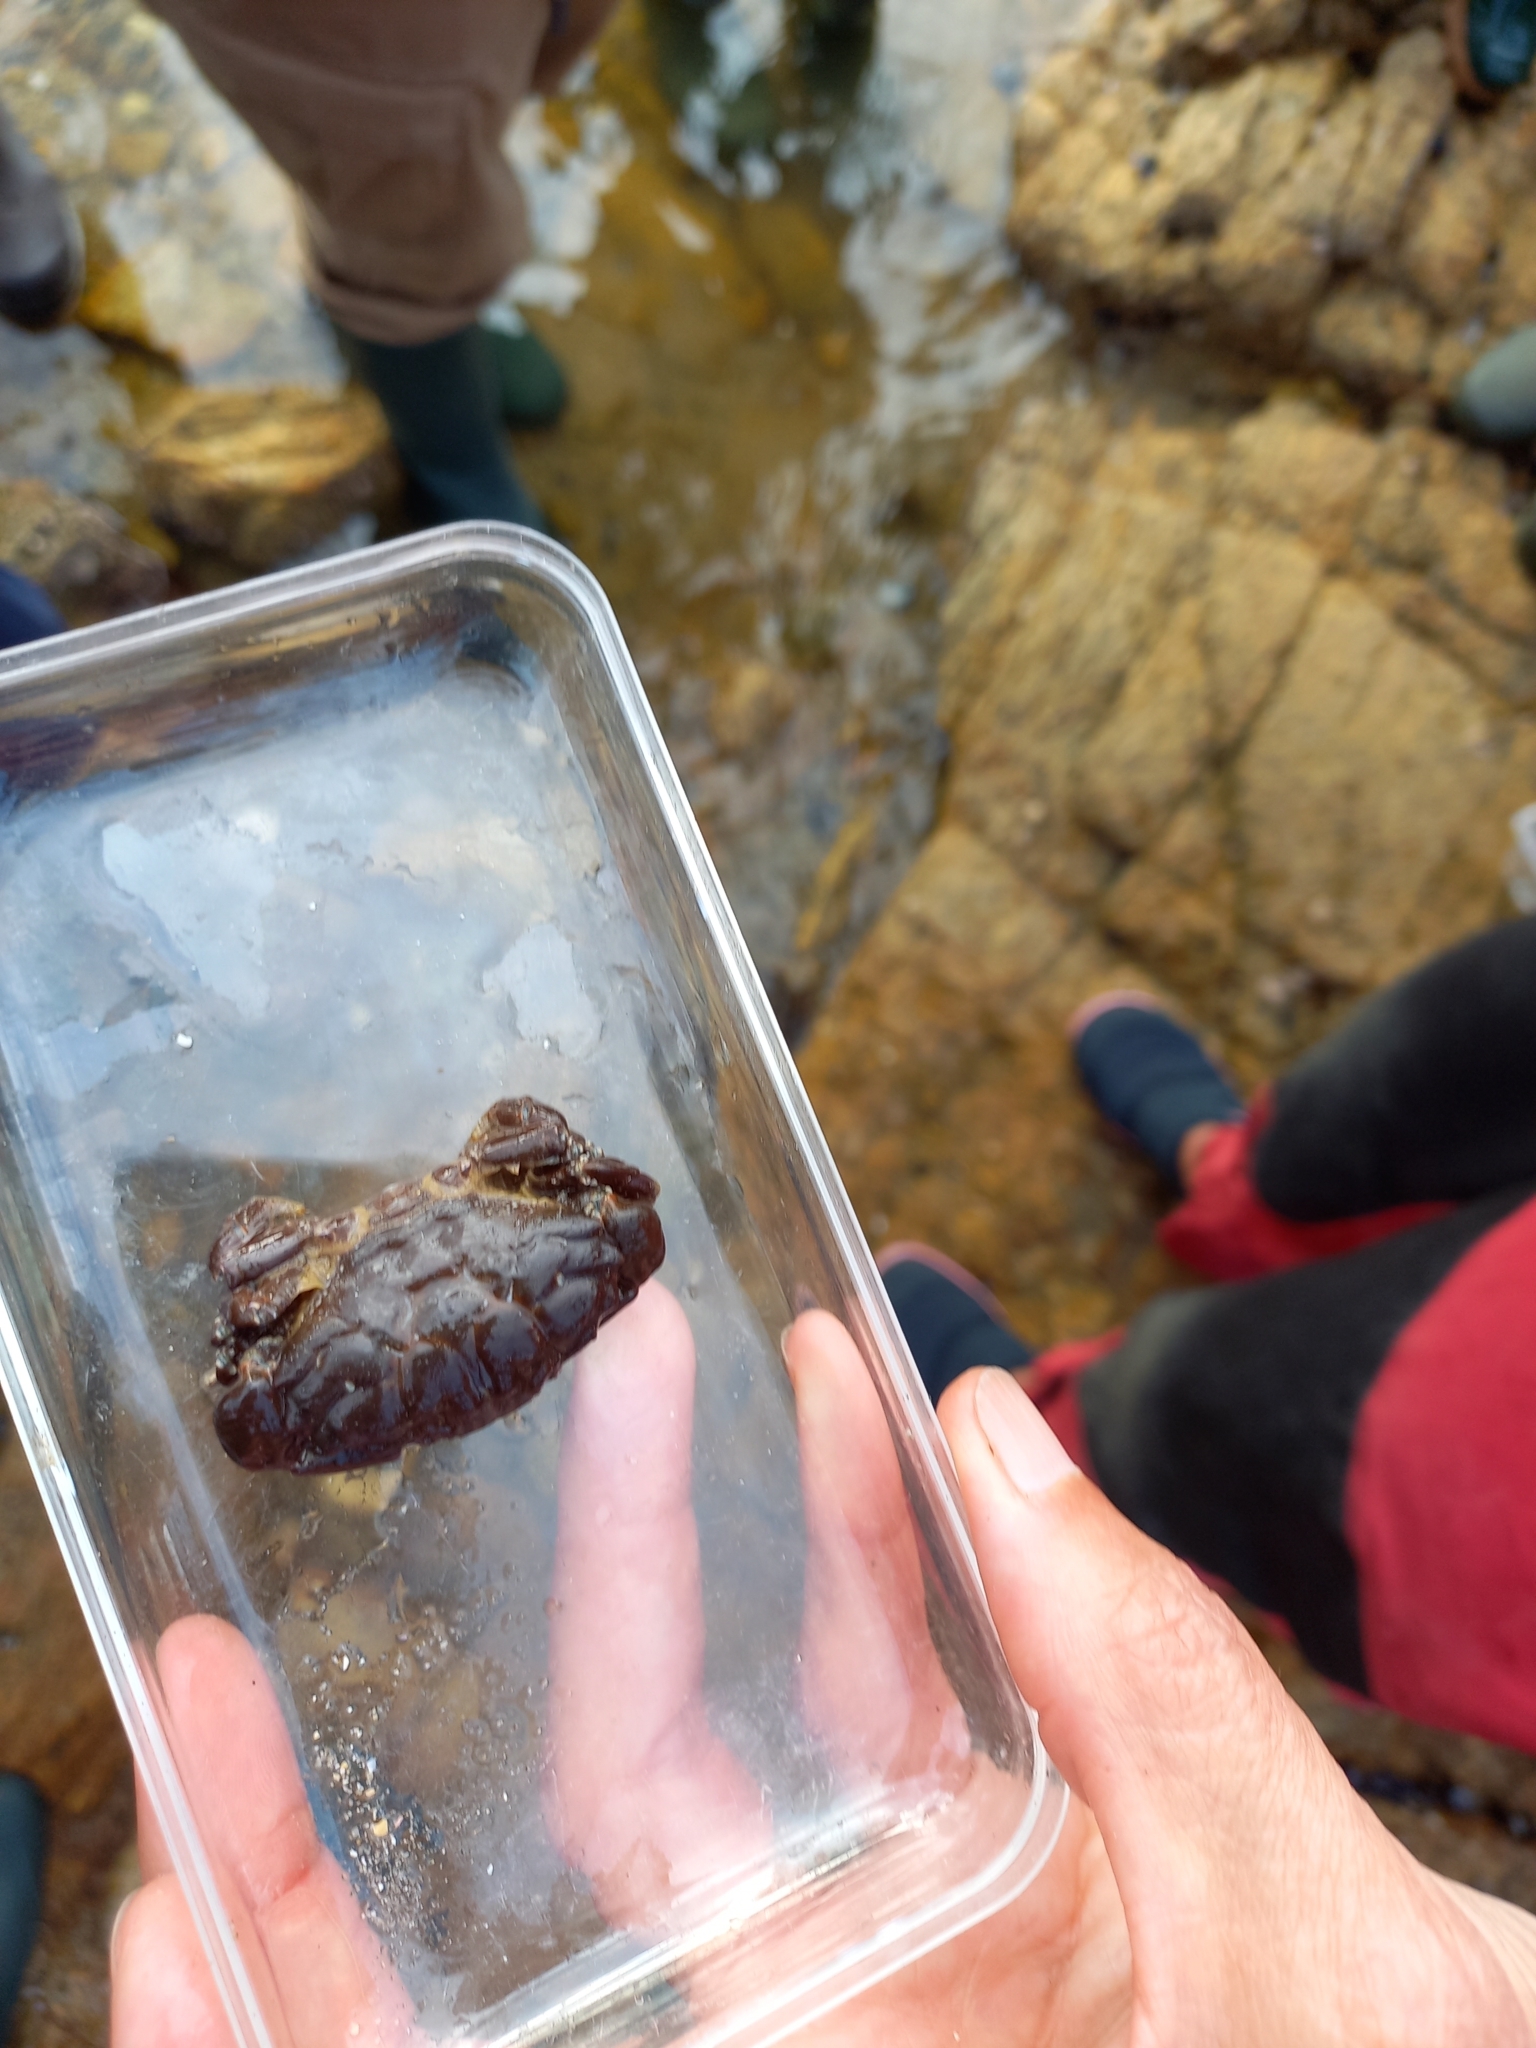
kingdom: Animalia
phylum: Arthropoda
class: Malacostraca
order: Decapoda
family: Xanthidae
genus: Xantho
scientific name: Xantho hydrophilus
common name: Montagu's crab
